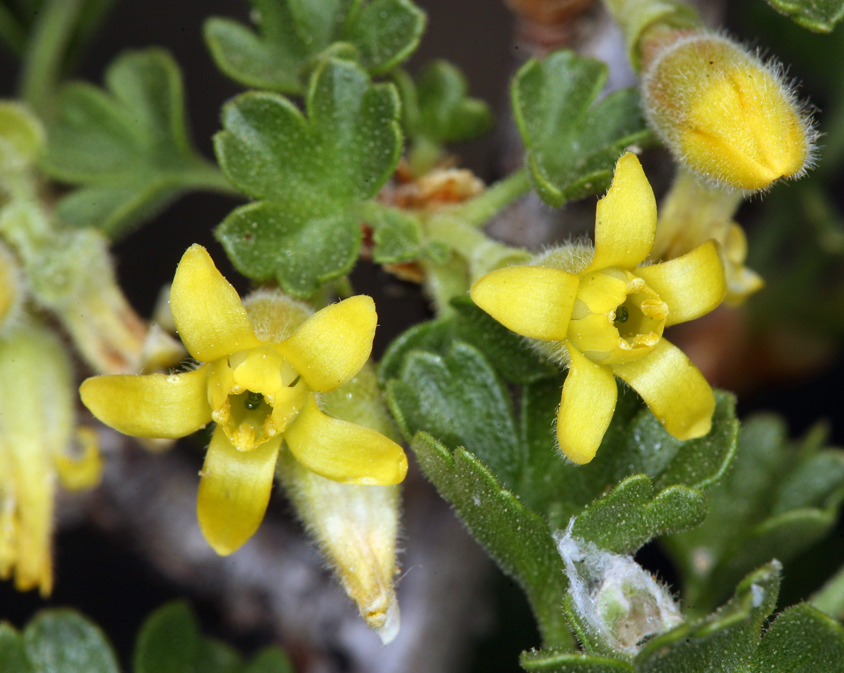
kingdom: Plantae
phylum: Tracheophyta
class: Magnoliopsida
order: Saxifragales
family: Grossulariaceae
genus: Ribes
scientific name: Ribes velutinum
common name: Desert gooseberry
